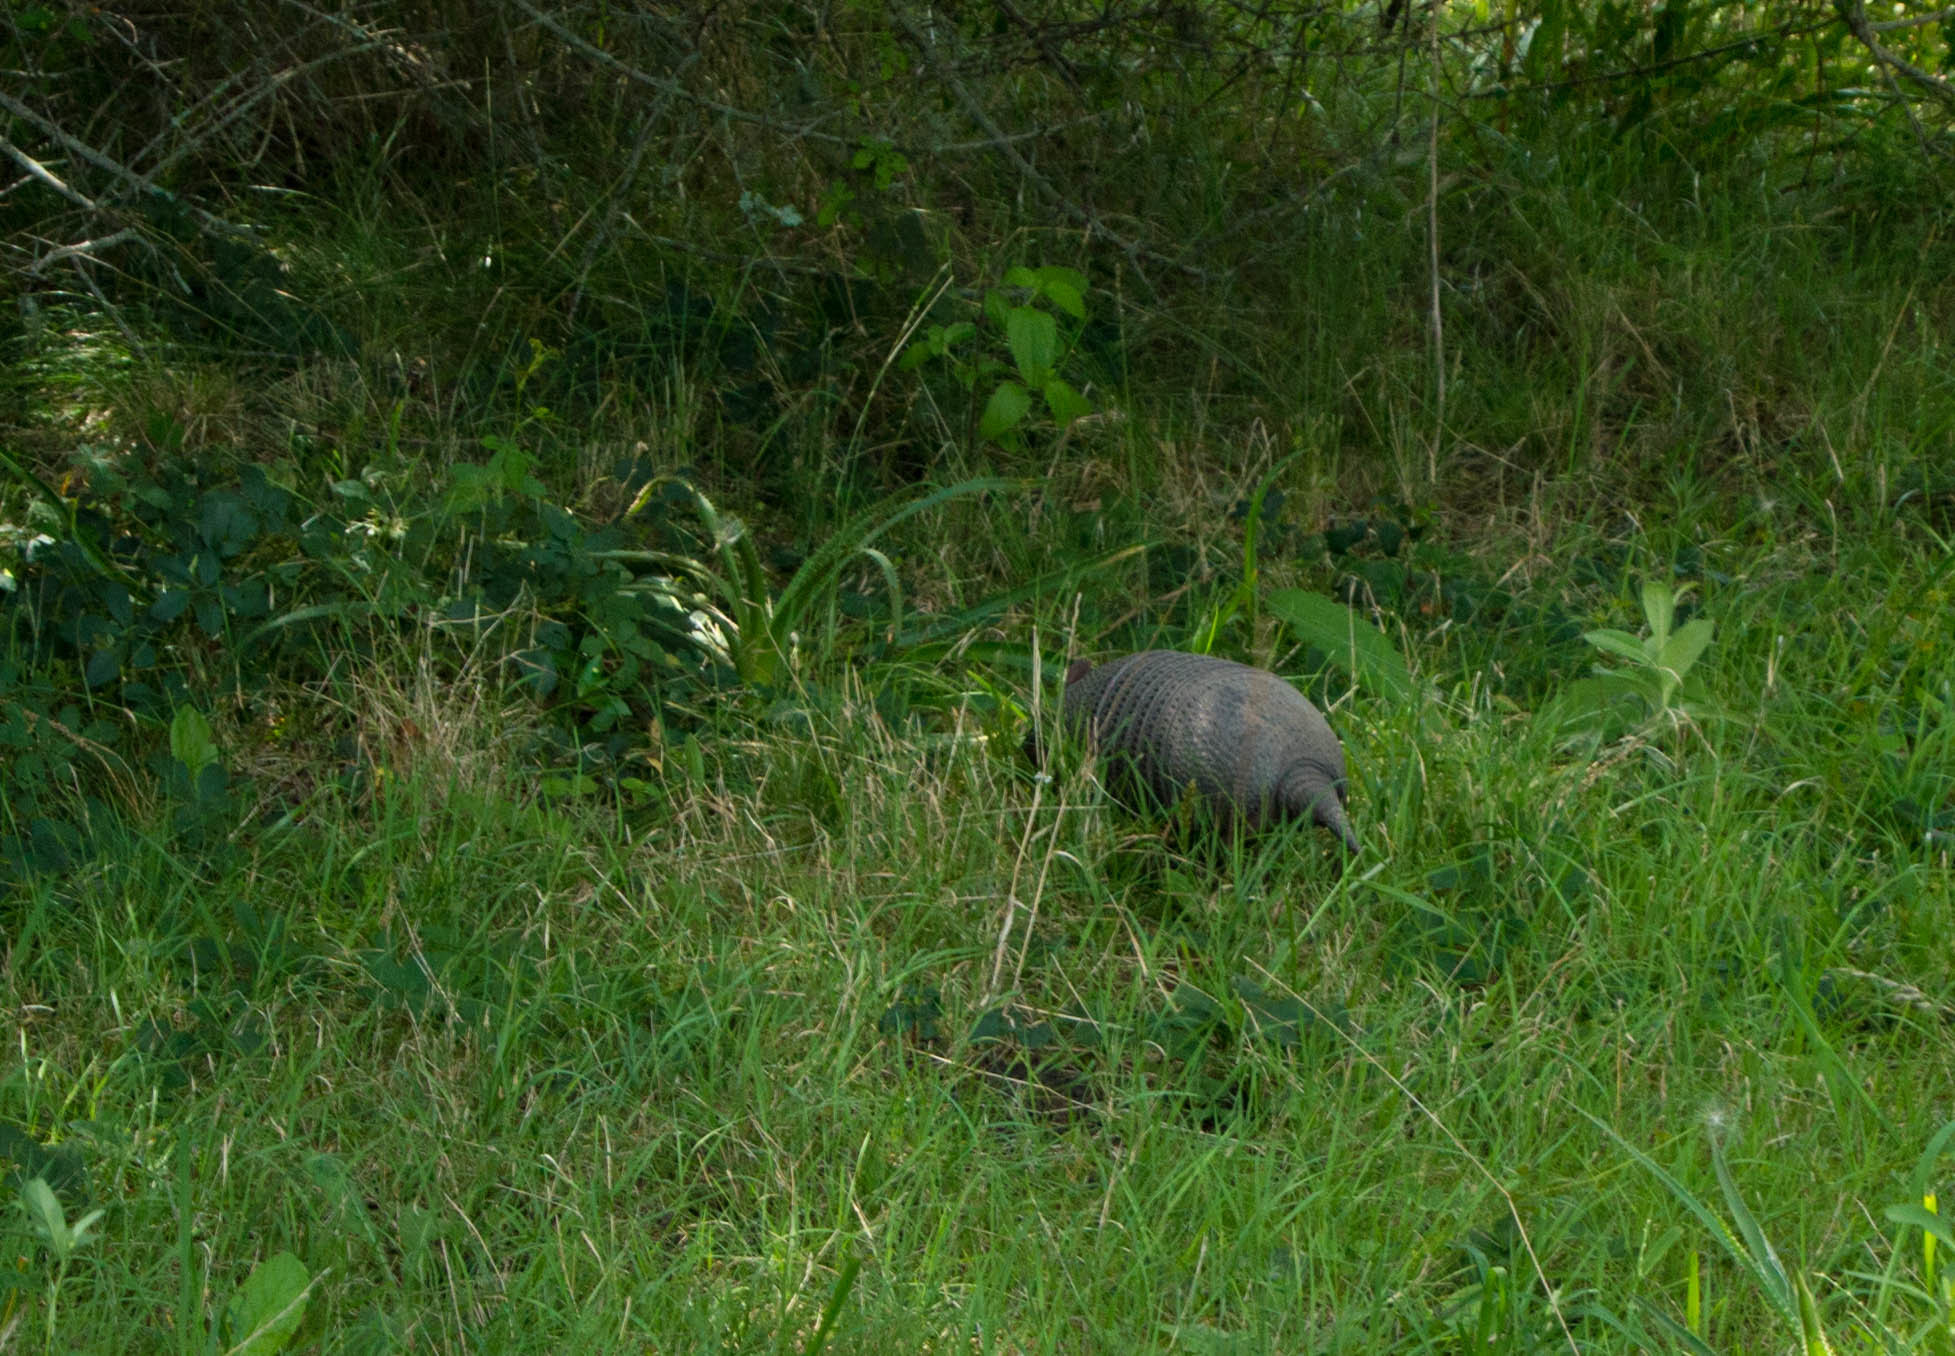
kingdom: Animalia
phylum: Chordata
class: Mammalia
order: Cingulata
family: Dasypodidae
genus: Dasypus
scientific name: Dasypus septemcinctus
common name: Seven-banded armadillo
